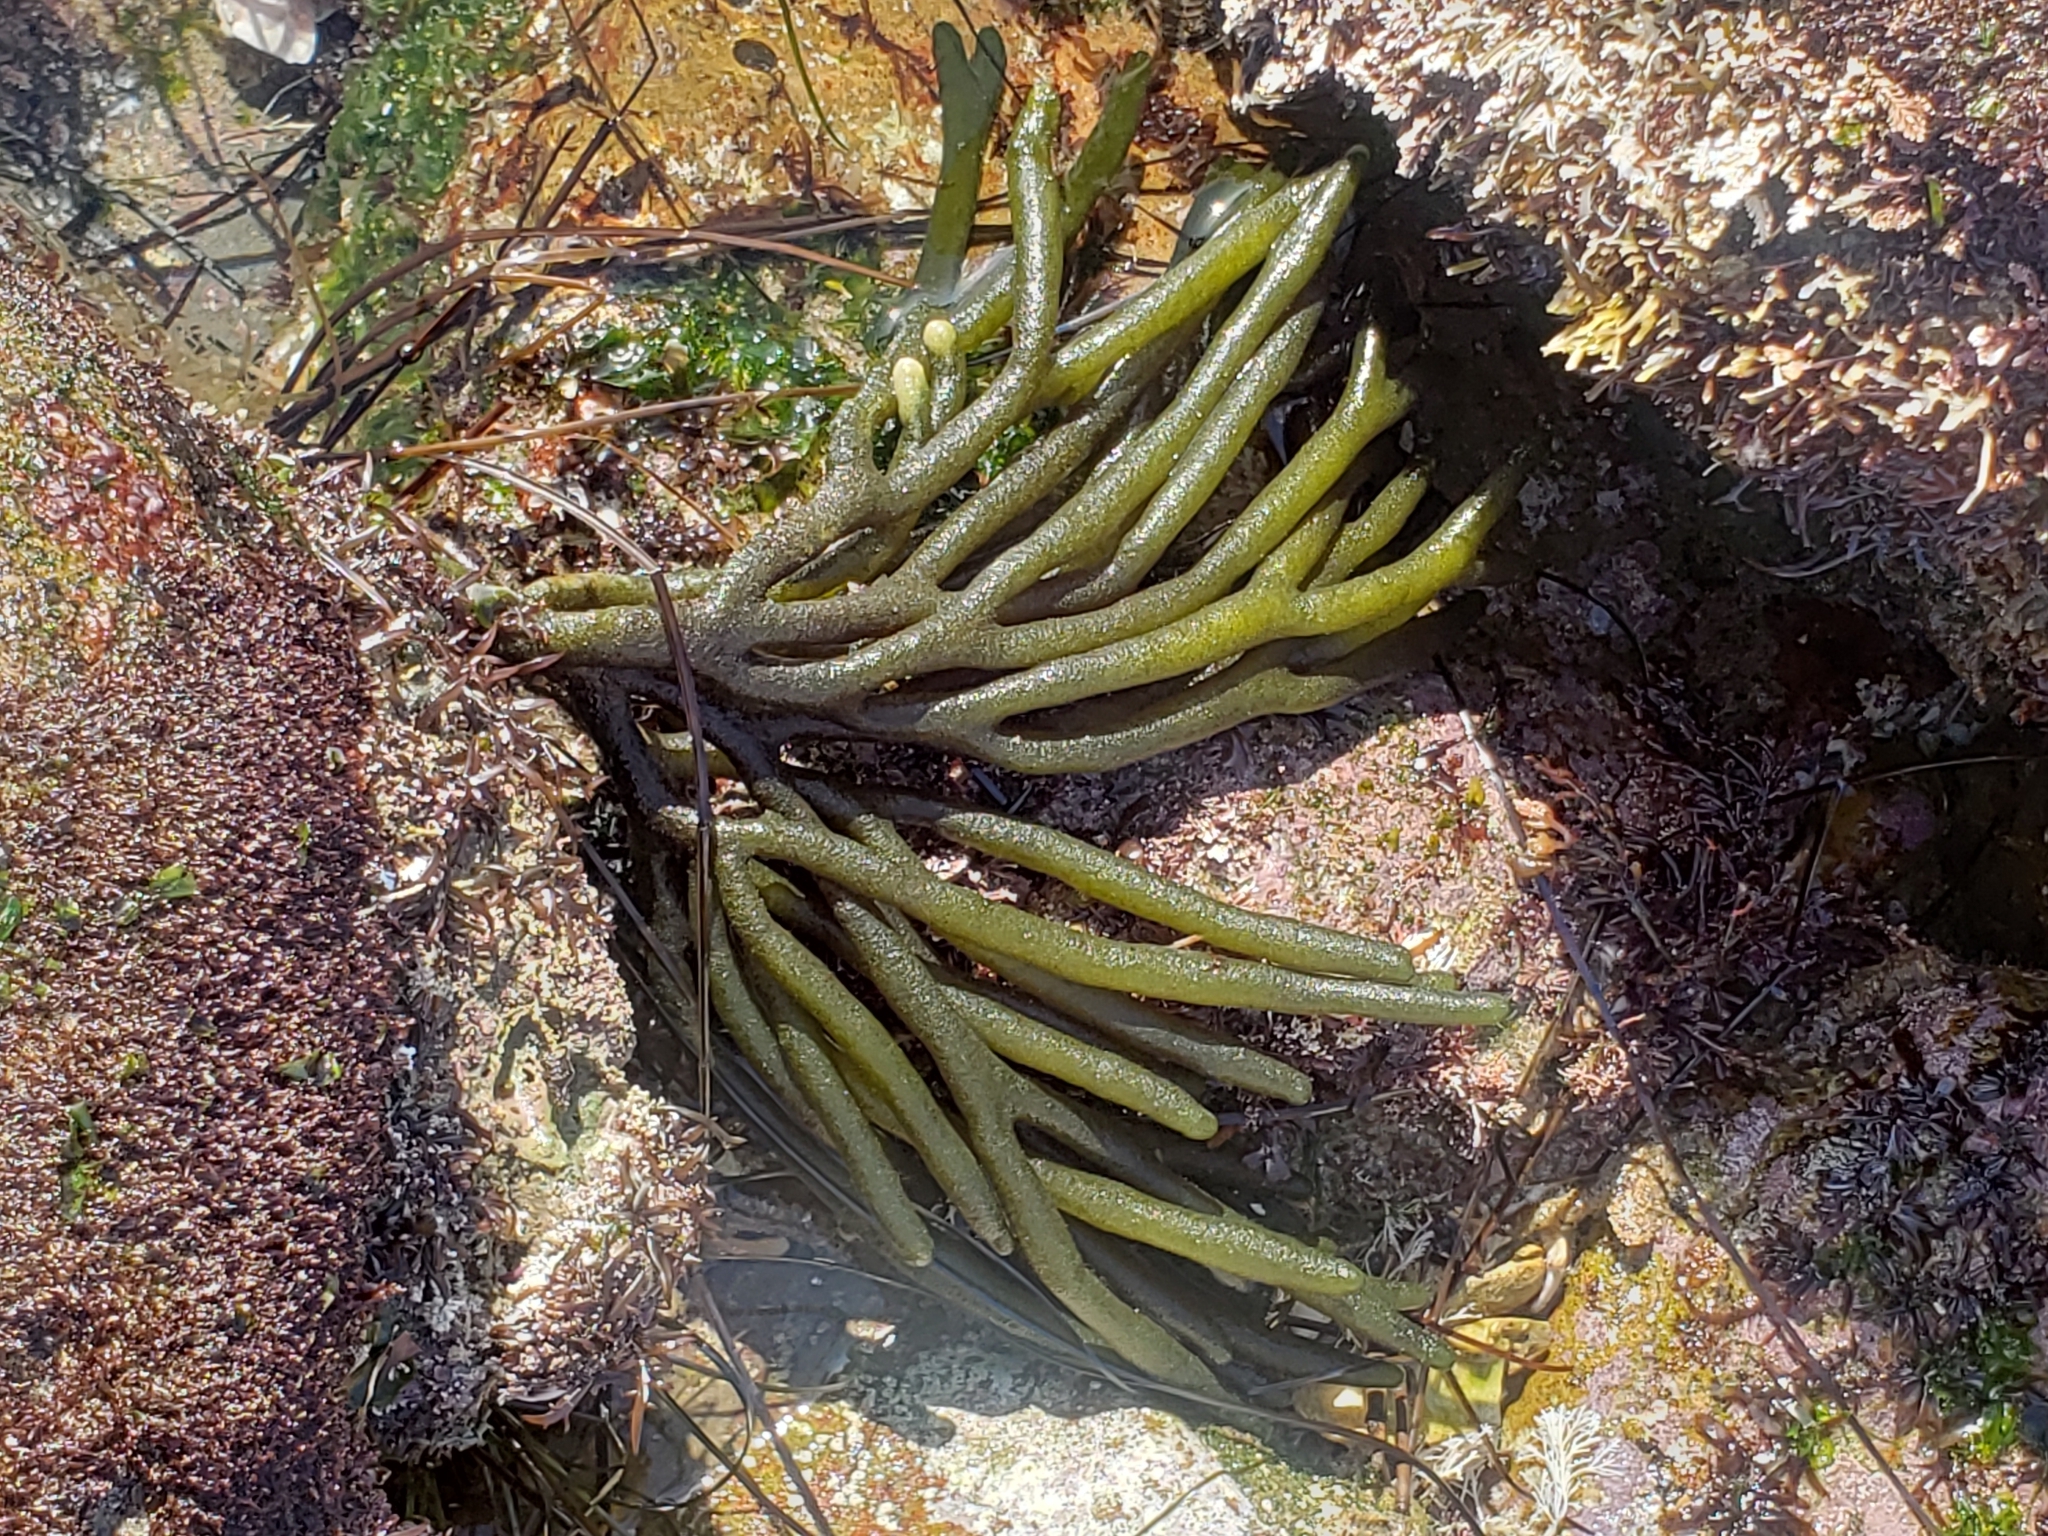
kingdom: Plantae
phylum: Chlorophyta
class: Ulvophyceae
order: Bryopsidales
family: Codiaceae
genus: Codium
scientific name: Codium fragile
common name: Dead man's fingers
